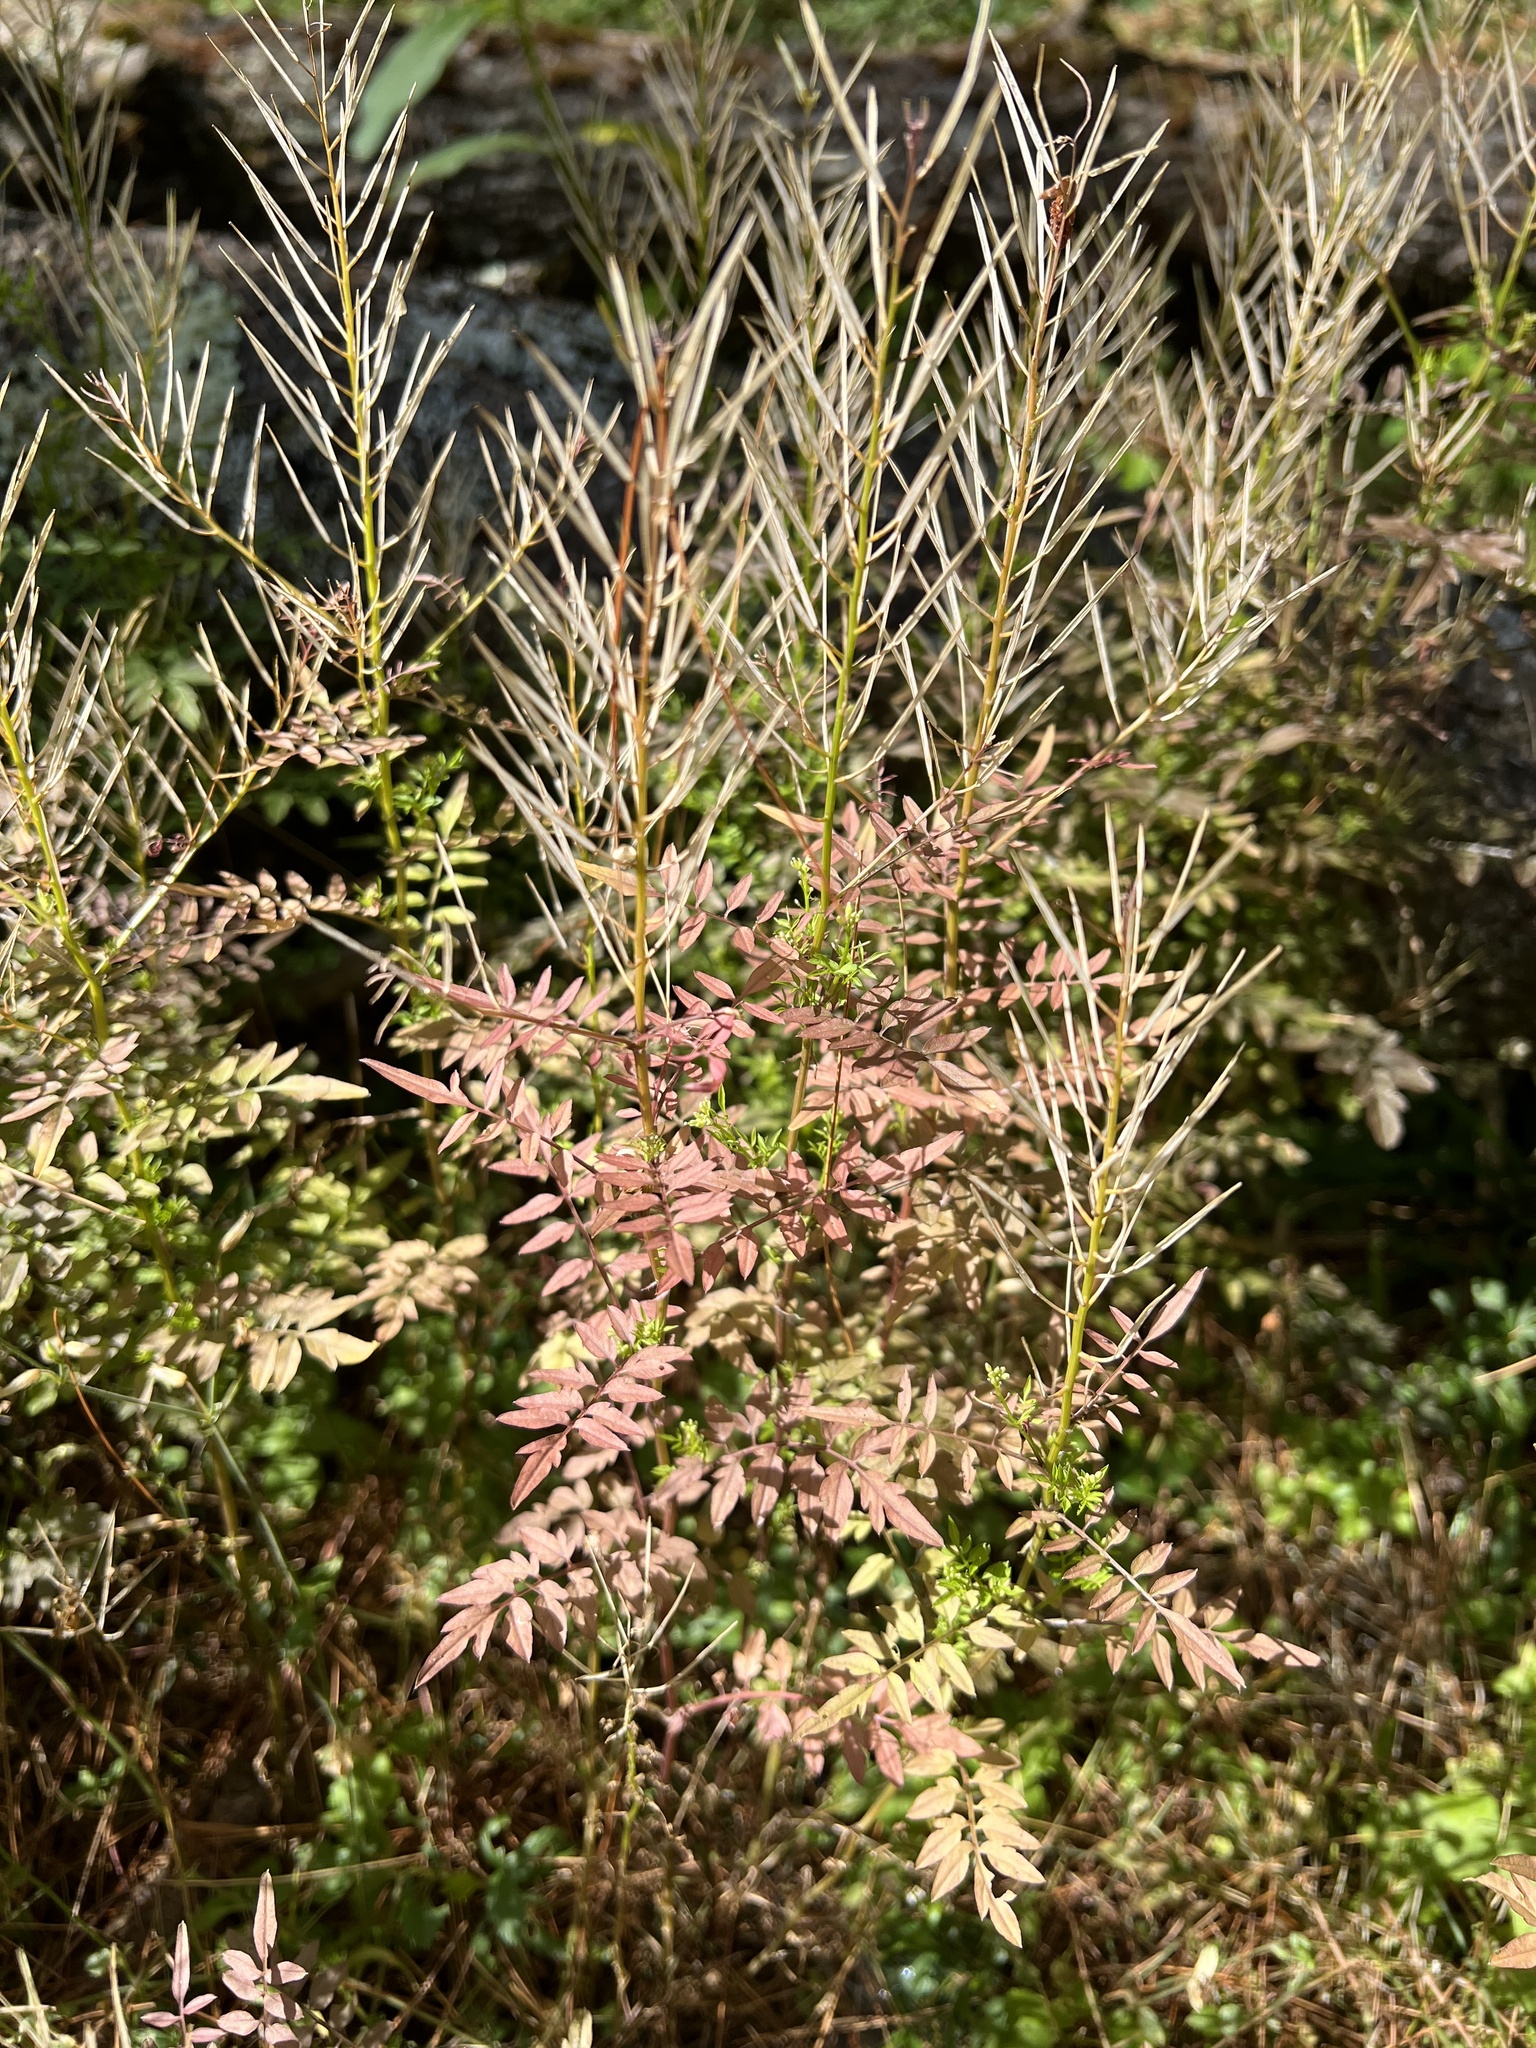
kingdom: Plantae
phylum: Tracheophyta
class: Magnoliopsida
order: Brassicales
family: Brassicaceae
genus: Cardamine
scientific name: Cardamine impatiens
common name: Narrow-leaved bitter-cress
